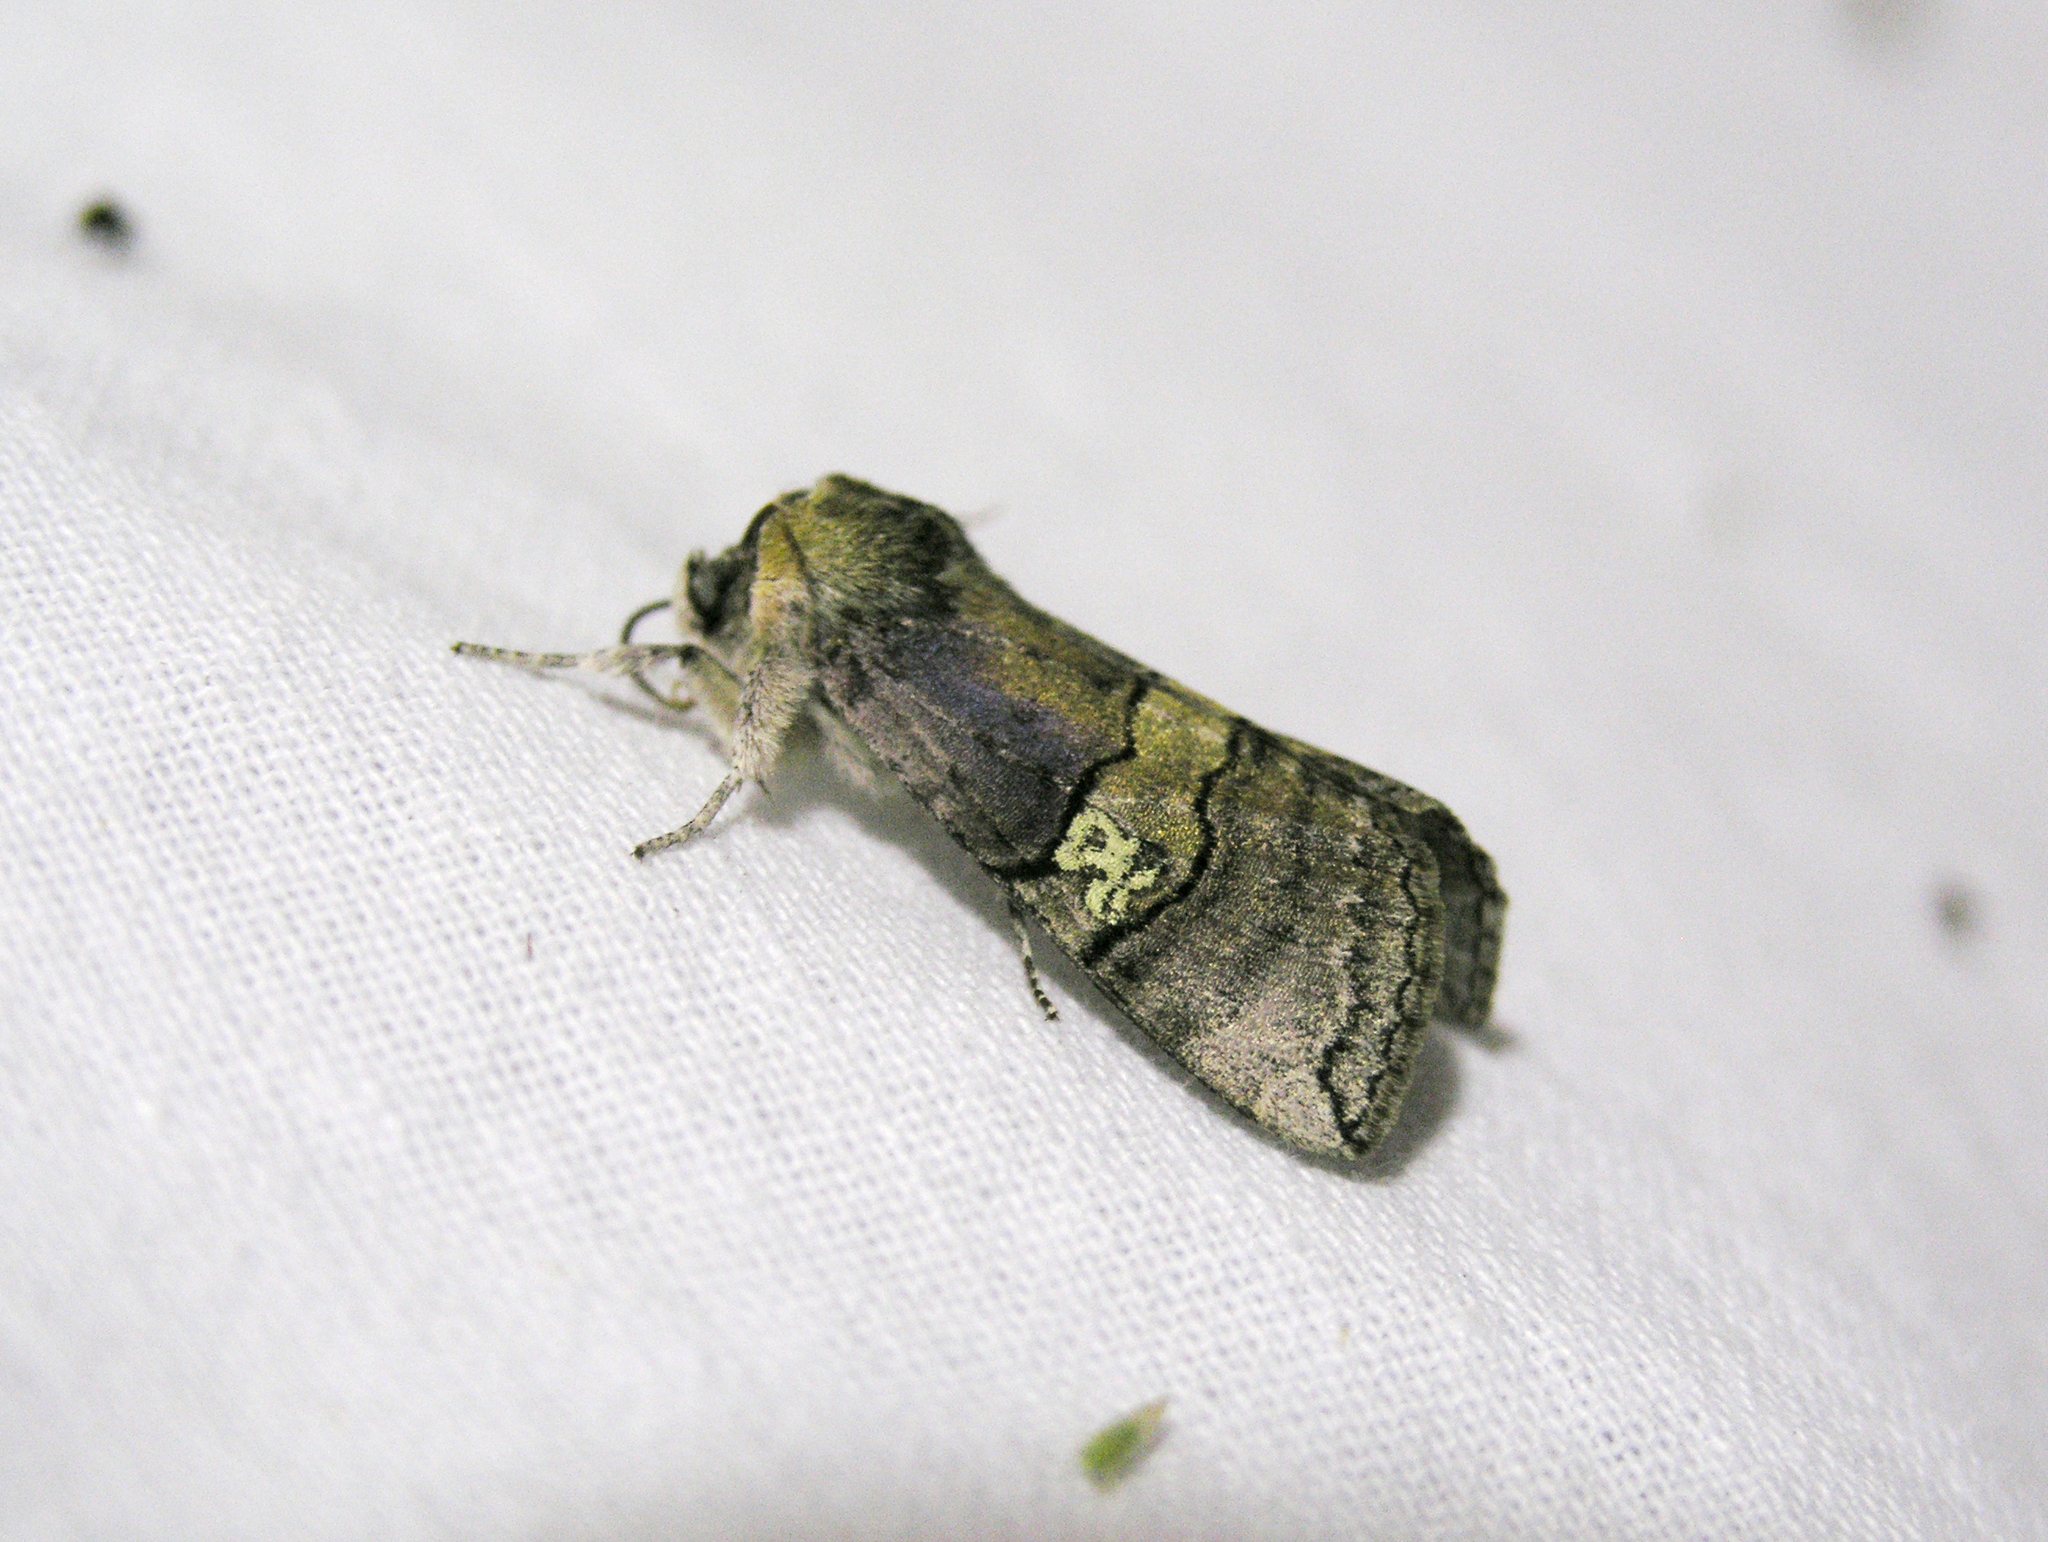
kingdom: Animalia
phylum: Arthropoda
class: Insecta
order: Lepidoptera
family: Drepanidae
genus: Tethea
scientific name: Tethea ocularis
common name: Figure of eighty
